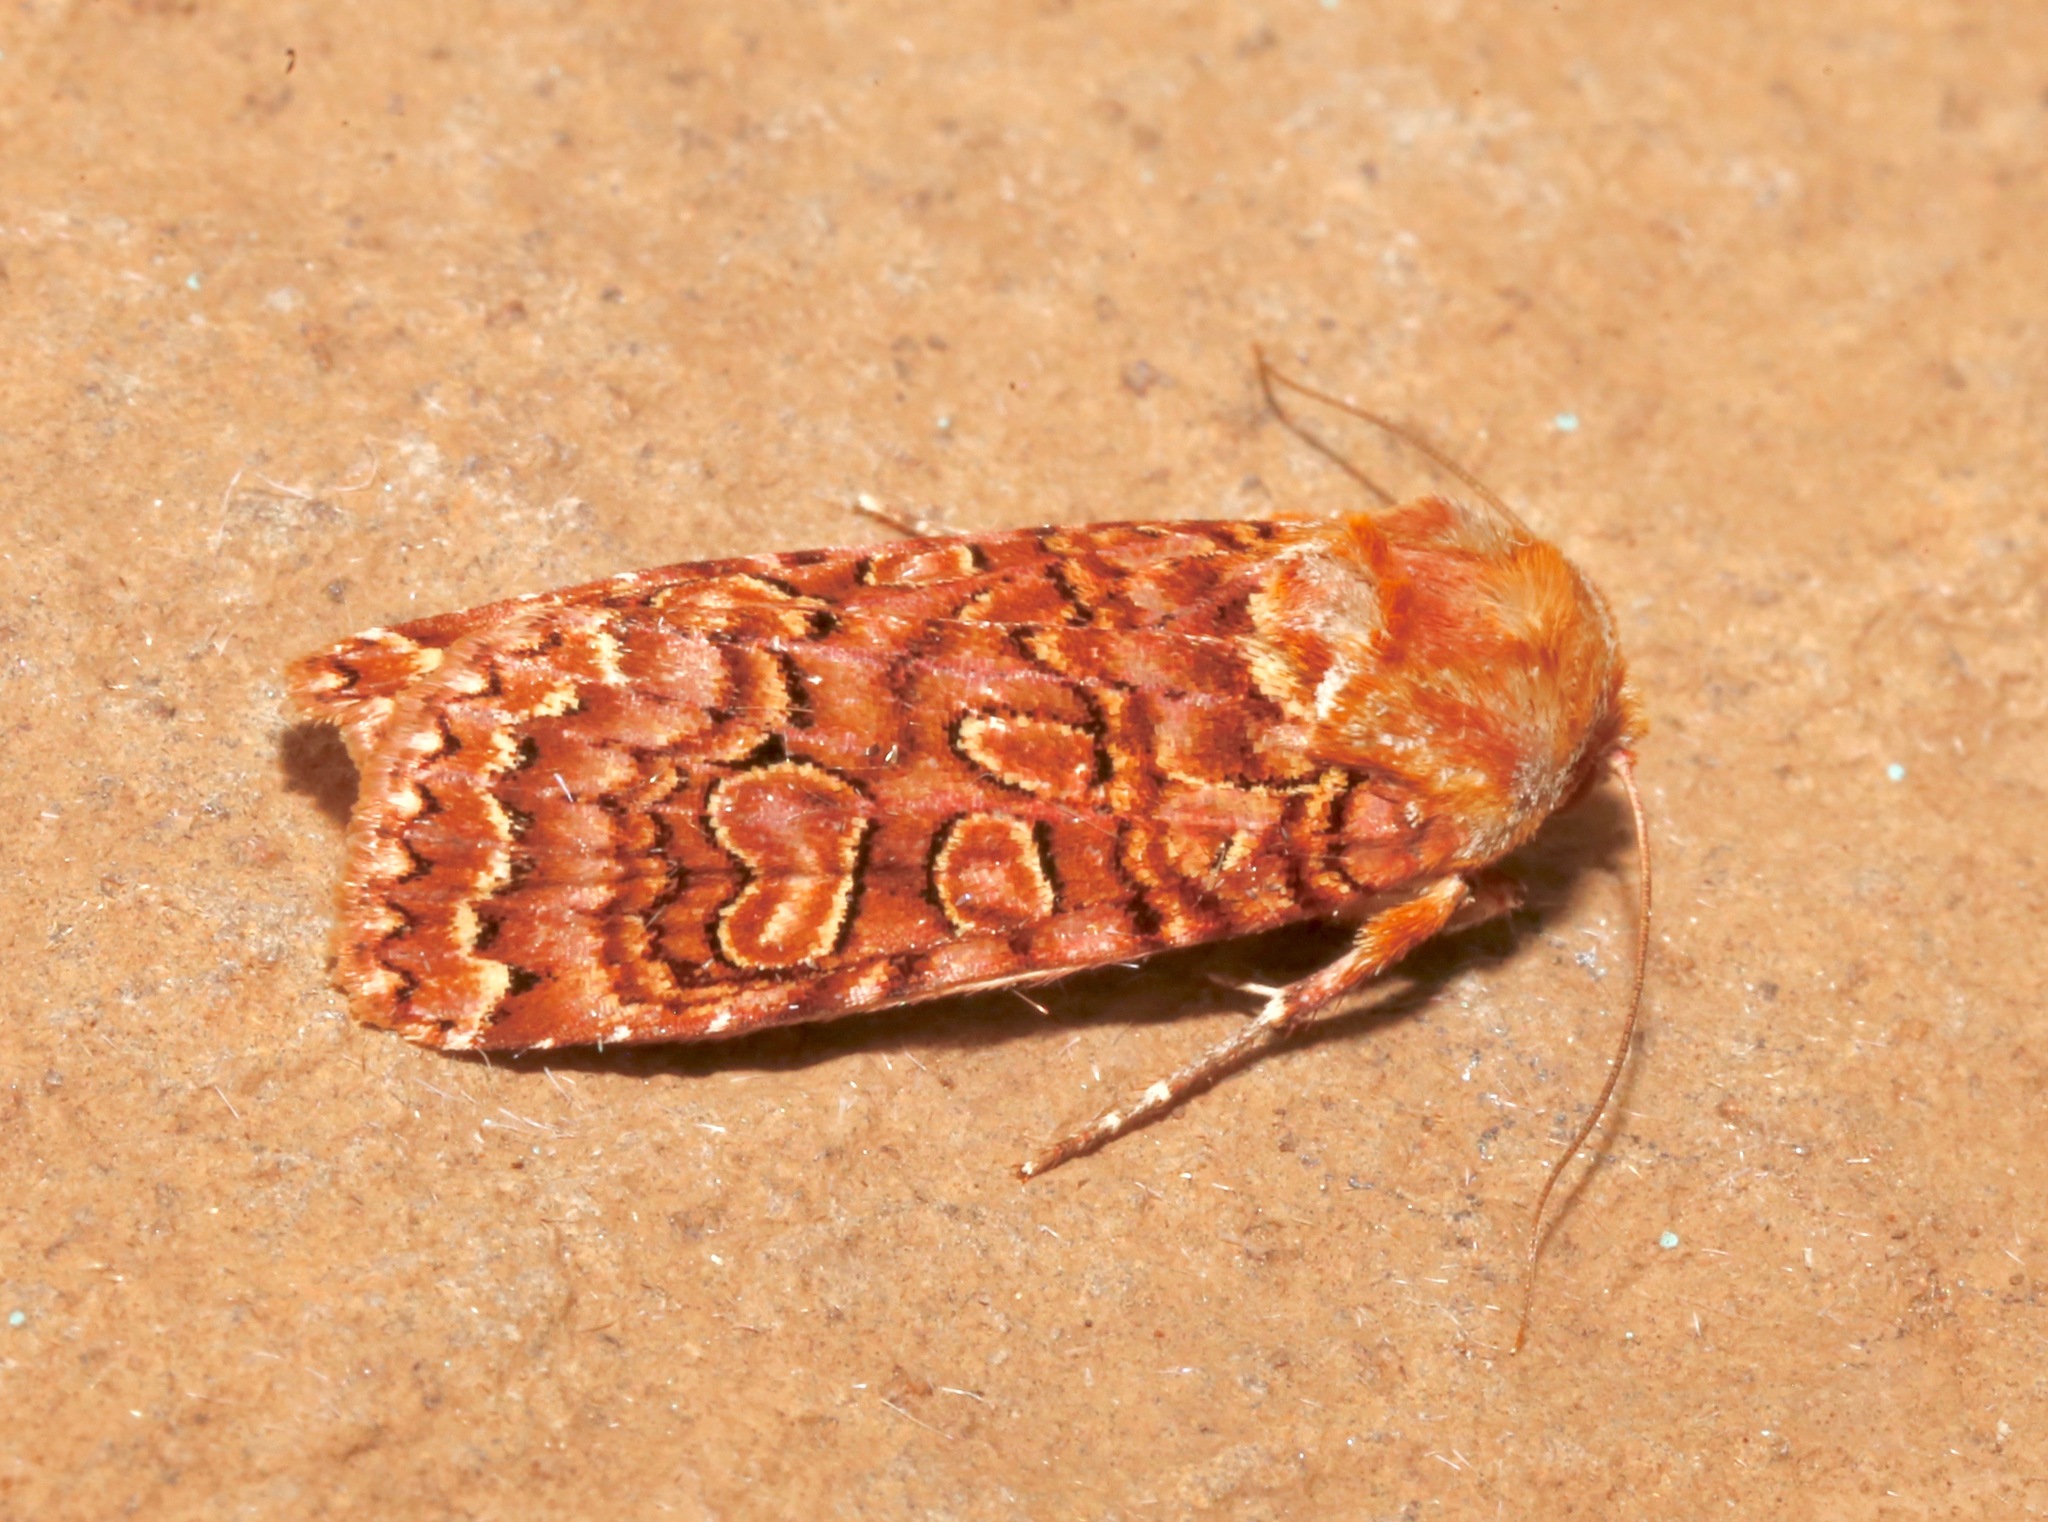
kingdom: Animalia
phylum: Arthropoda
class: Insecta
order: Lepidoptera
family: Noctuidae
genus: Xestia
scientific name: Xestia bolteri
